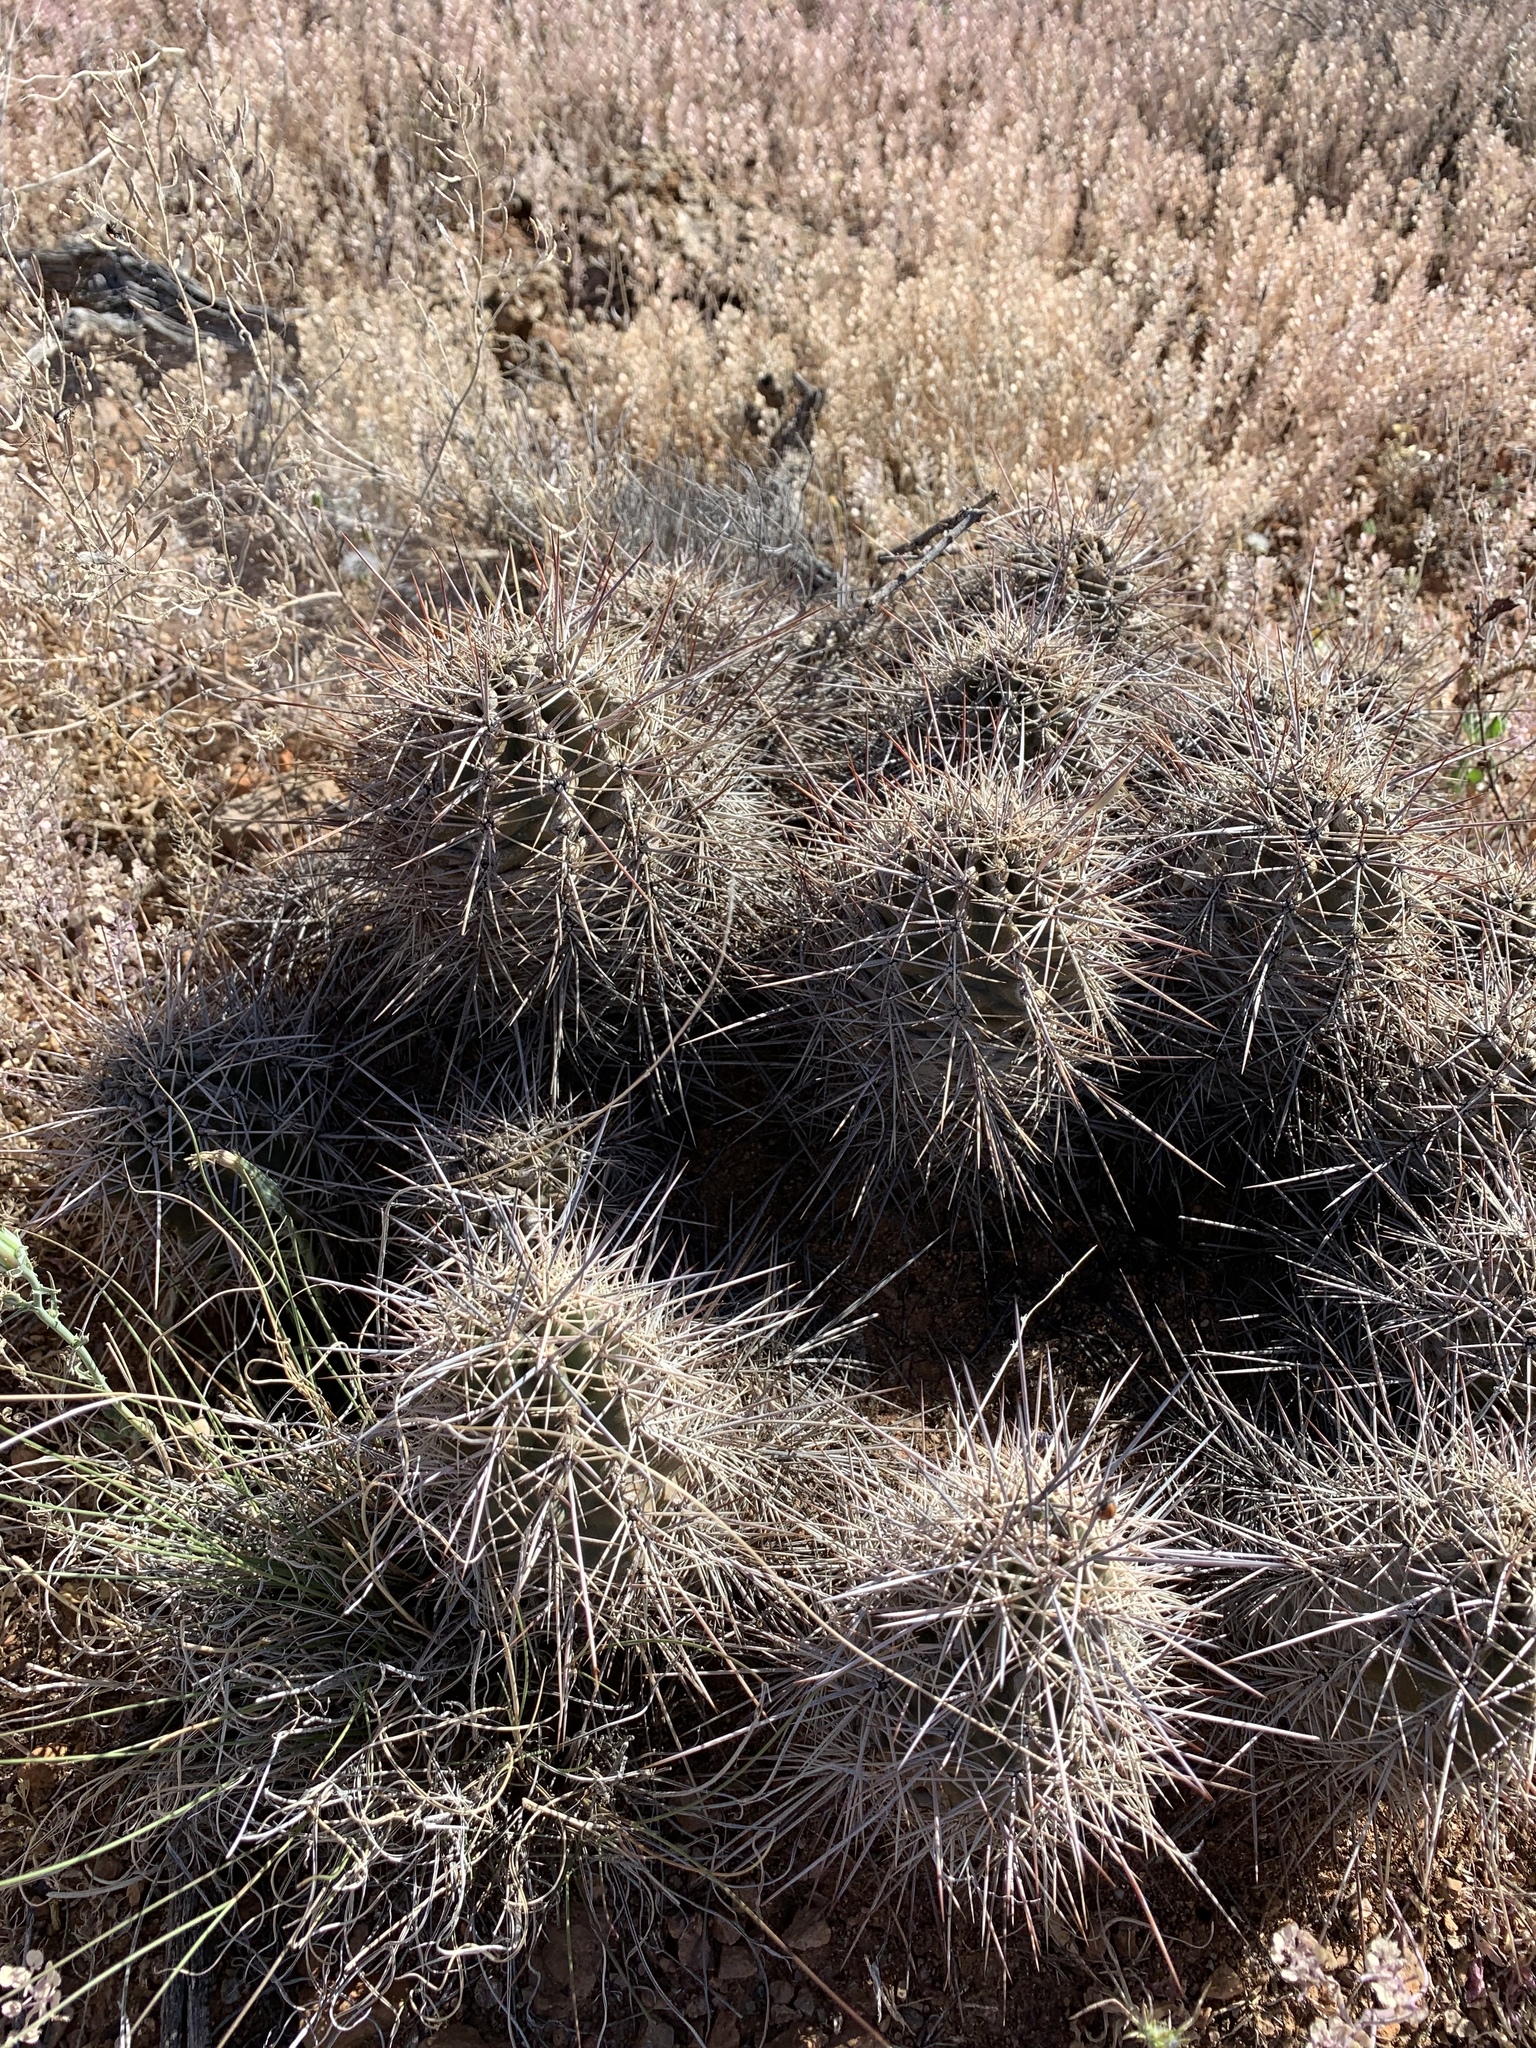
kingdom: Plantae
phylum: Tracheophyta
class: Magnoliopsida
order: Caryophyllales
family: Cactaceae
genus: Echinocereus
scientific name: Echinocereus coccineus
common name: Scarlet hedgehog cactus
